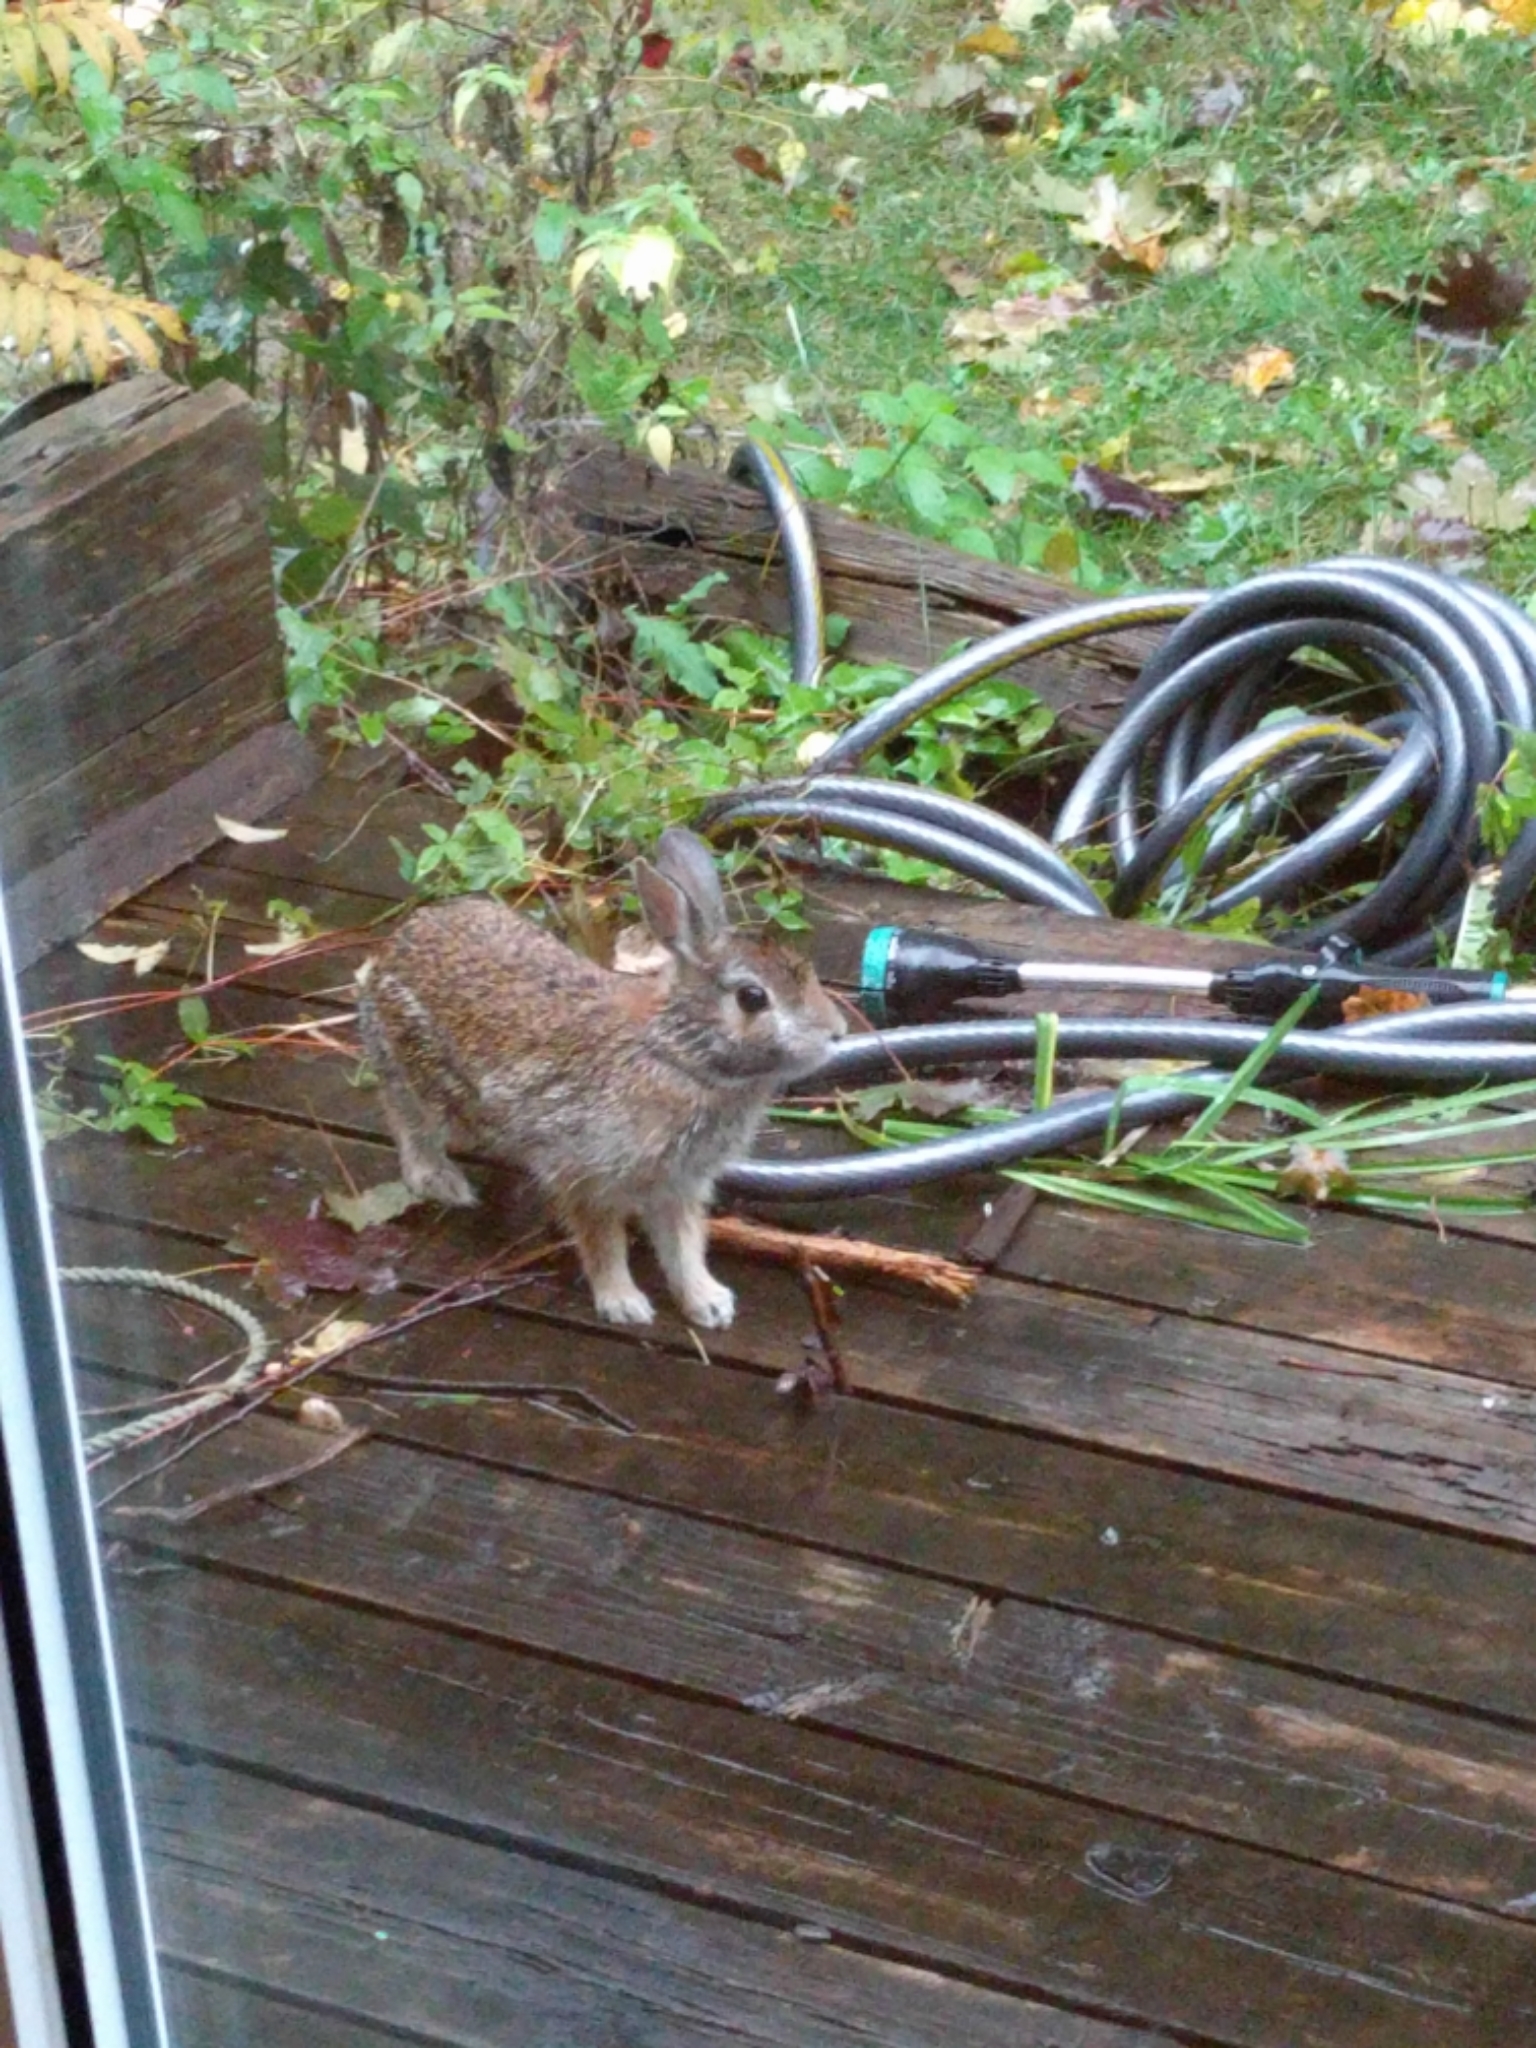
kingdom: Animalia
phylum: Chordata
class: Mammalia
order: Lagomorpha
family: Leporidae
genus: Sylvilagus
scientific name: Sylvilagus floridanus
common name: Eastern cottontail
